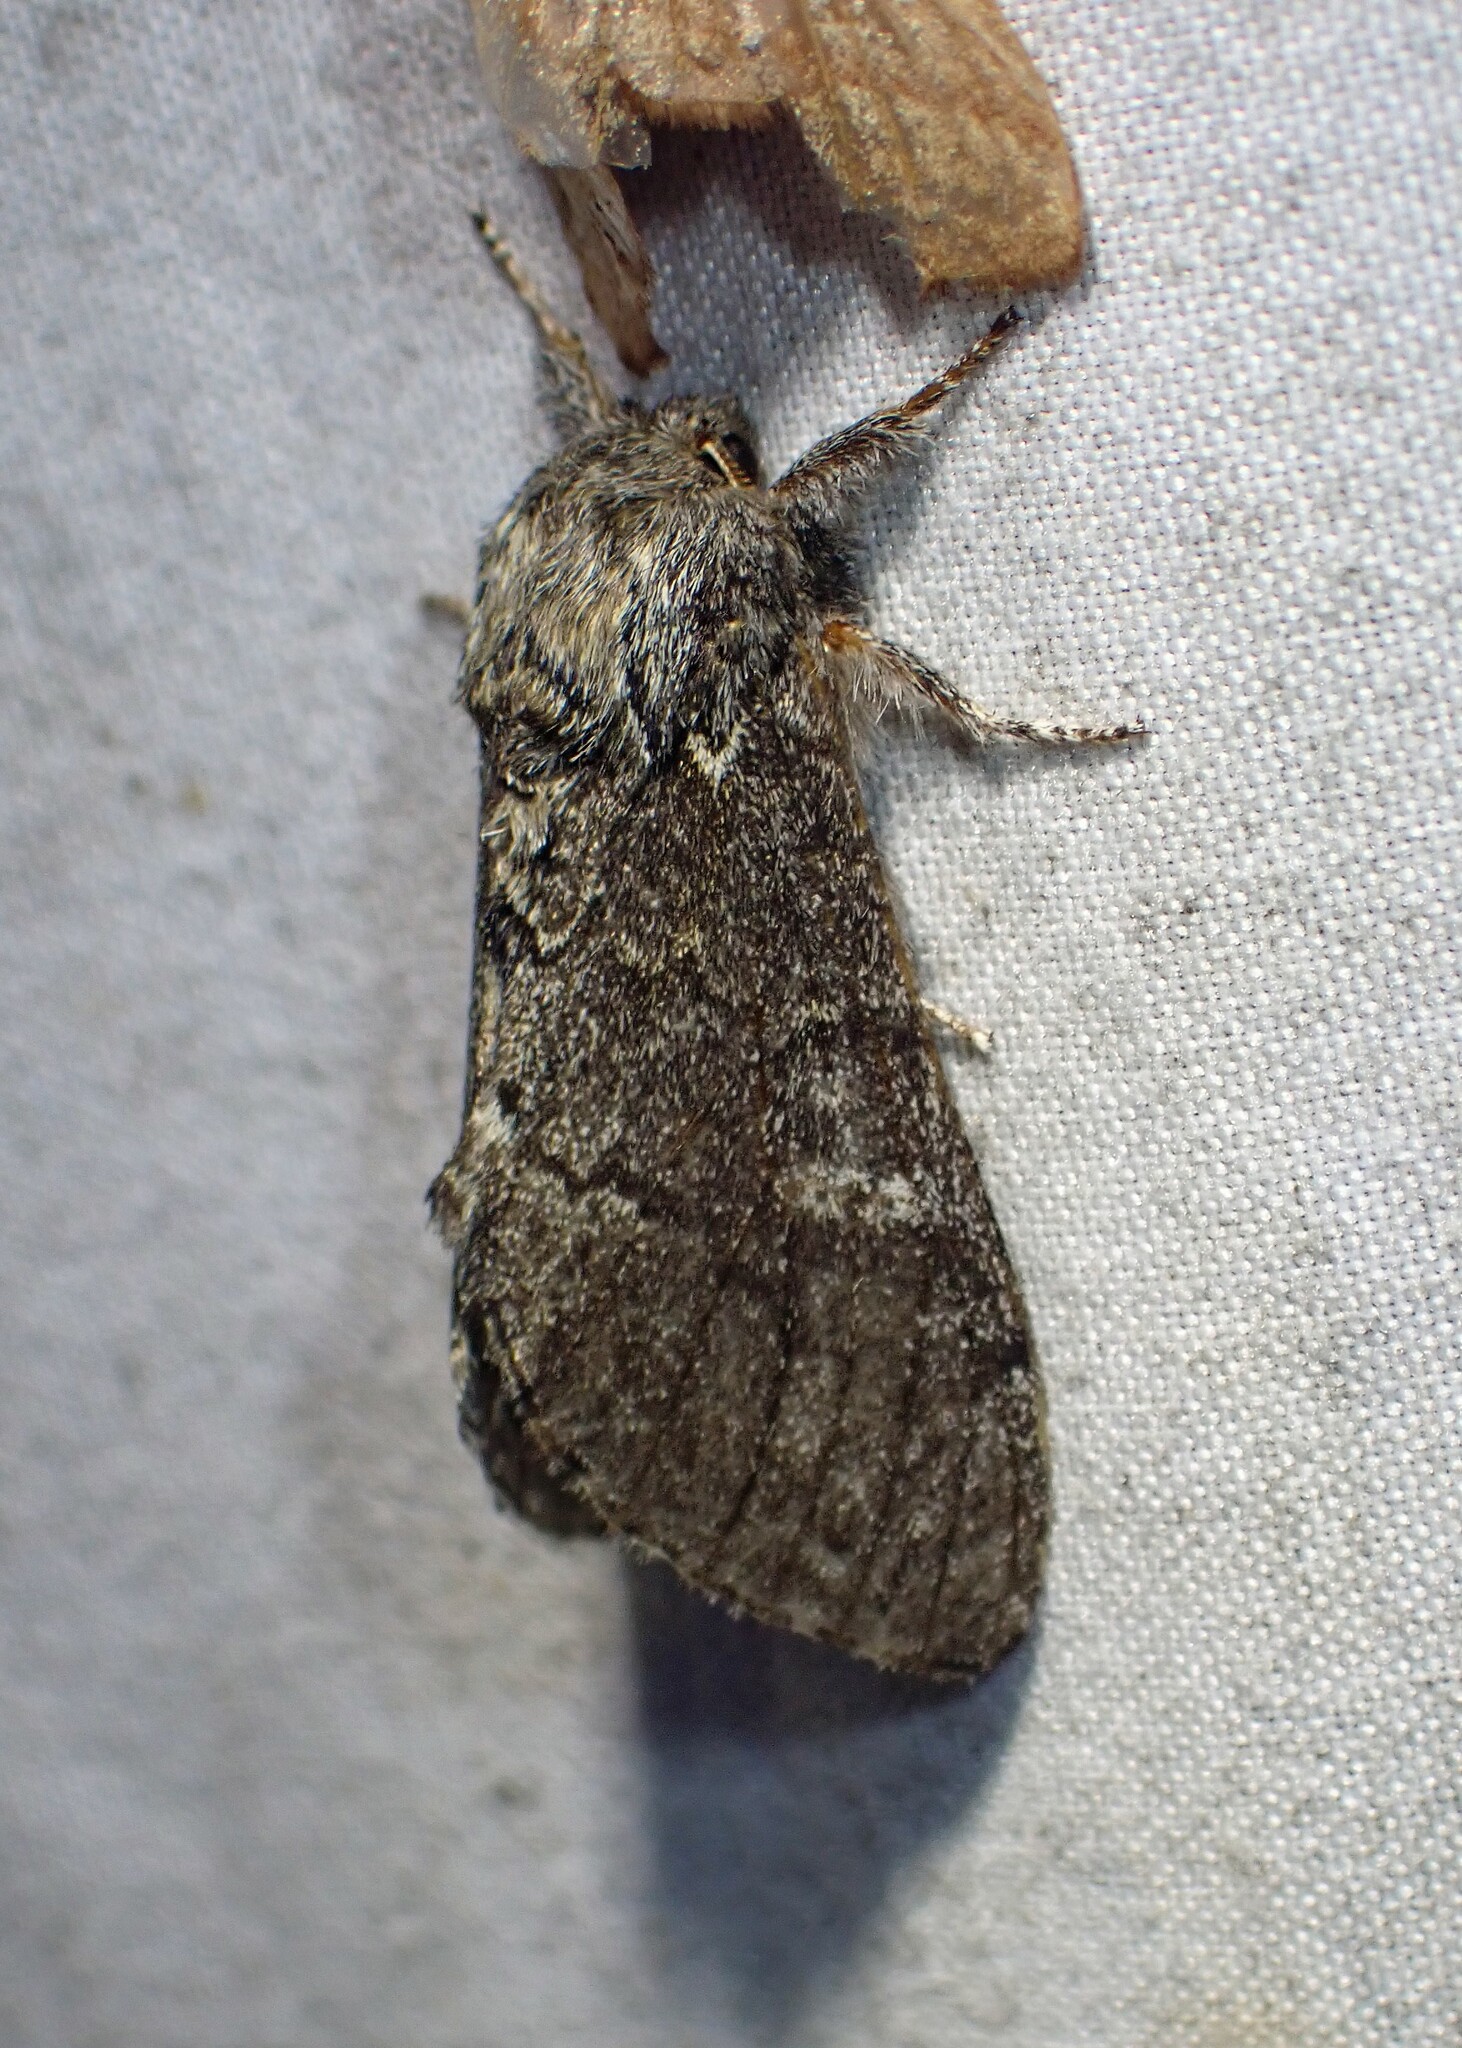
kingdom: Animalia
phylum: Arthropoda
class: Insecta
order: Lepidoptera
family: Notodontidae
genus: Notodonta
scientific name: Notodonta torva
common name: Large dark prominent
